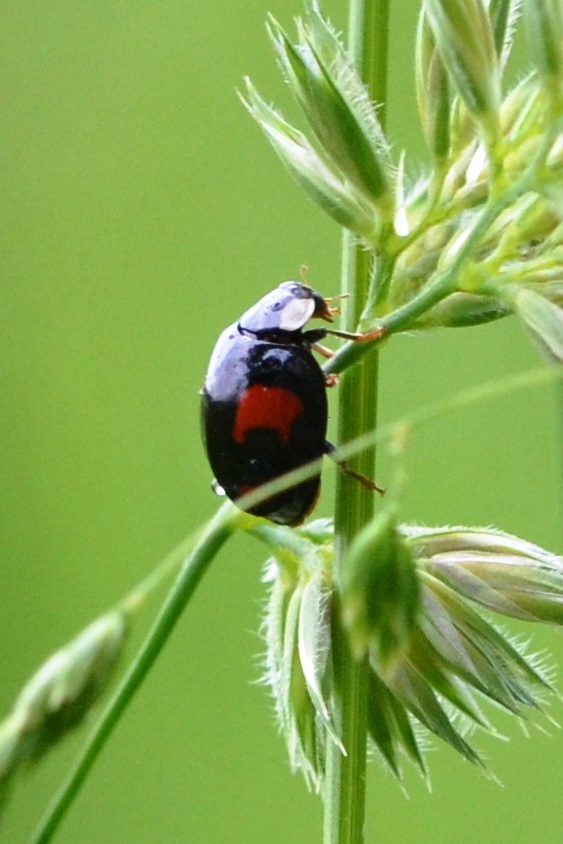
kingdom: Animalia
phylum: Arthropoda
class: Insecta
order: Coleoptera
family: Coccinellidae
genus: Harmonia
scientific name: Harmonia axyridis
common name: Harlequin ladybird
